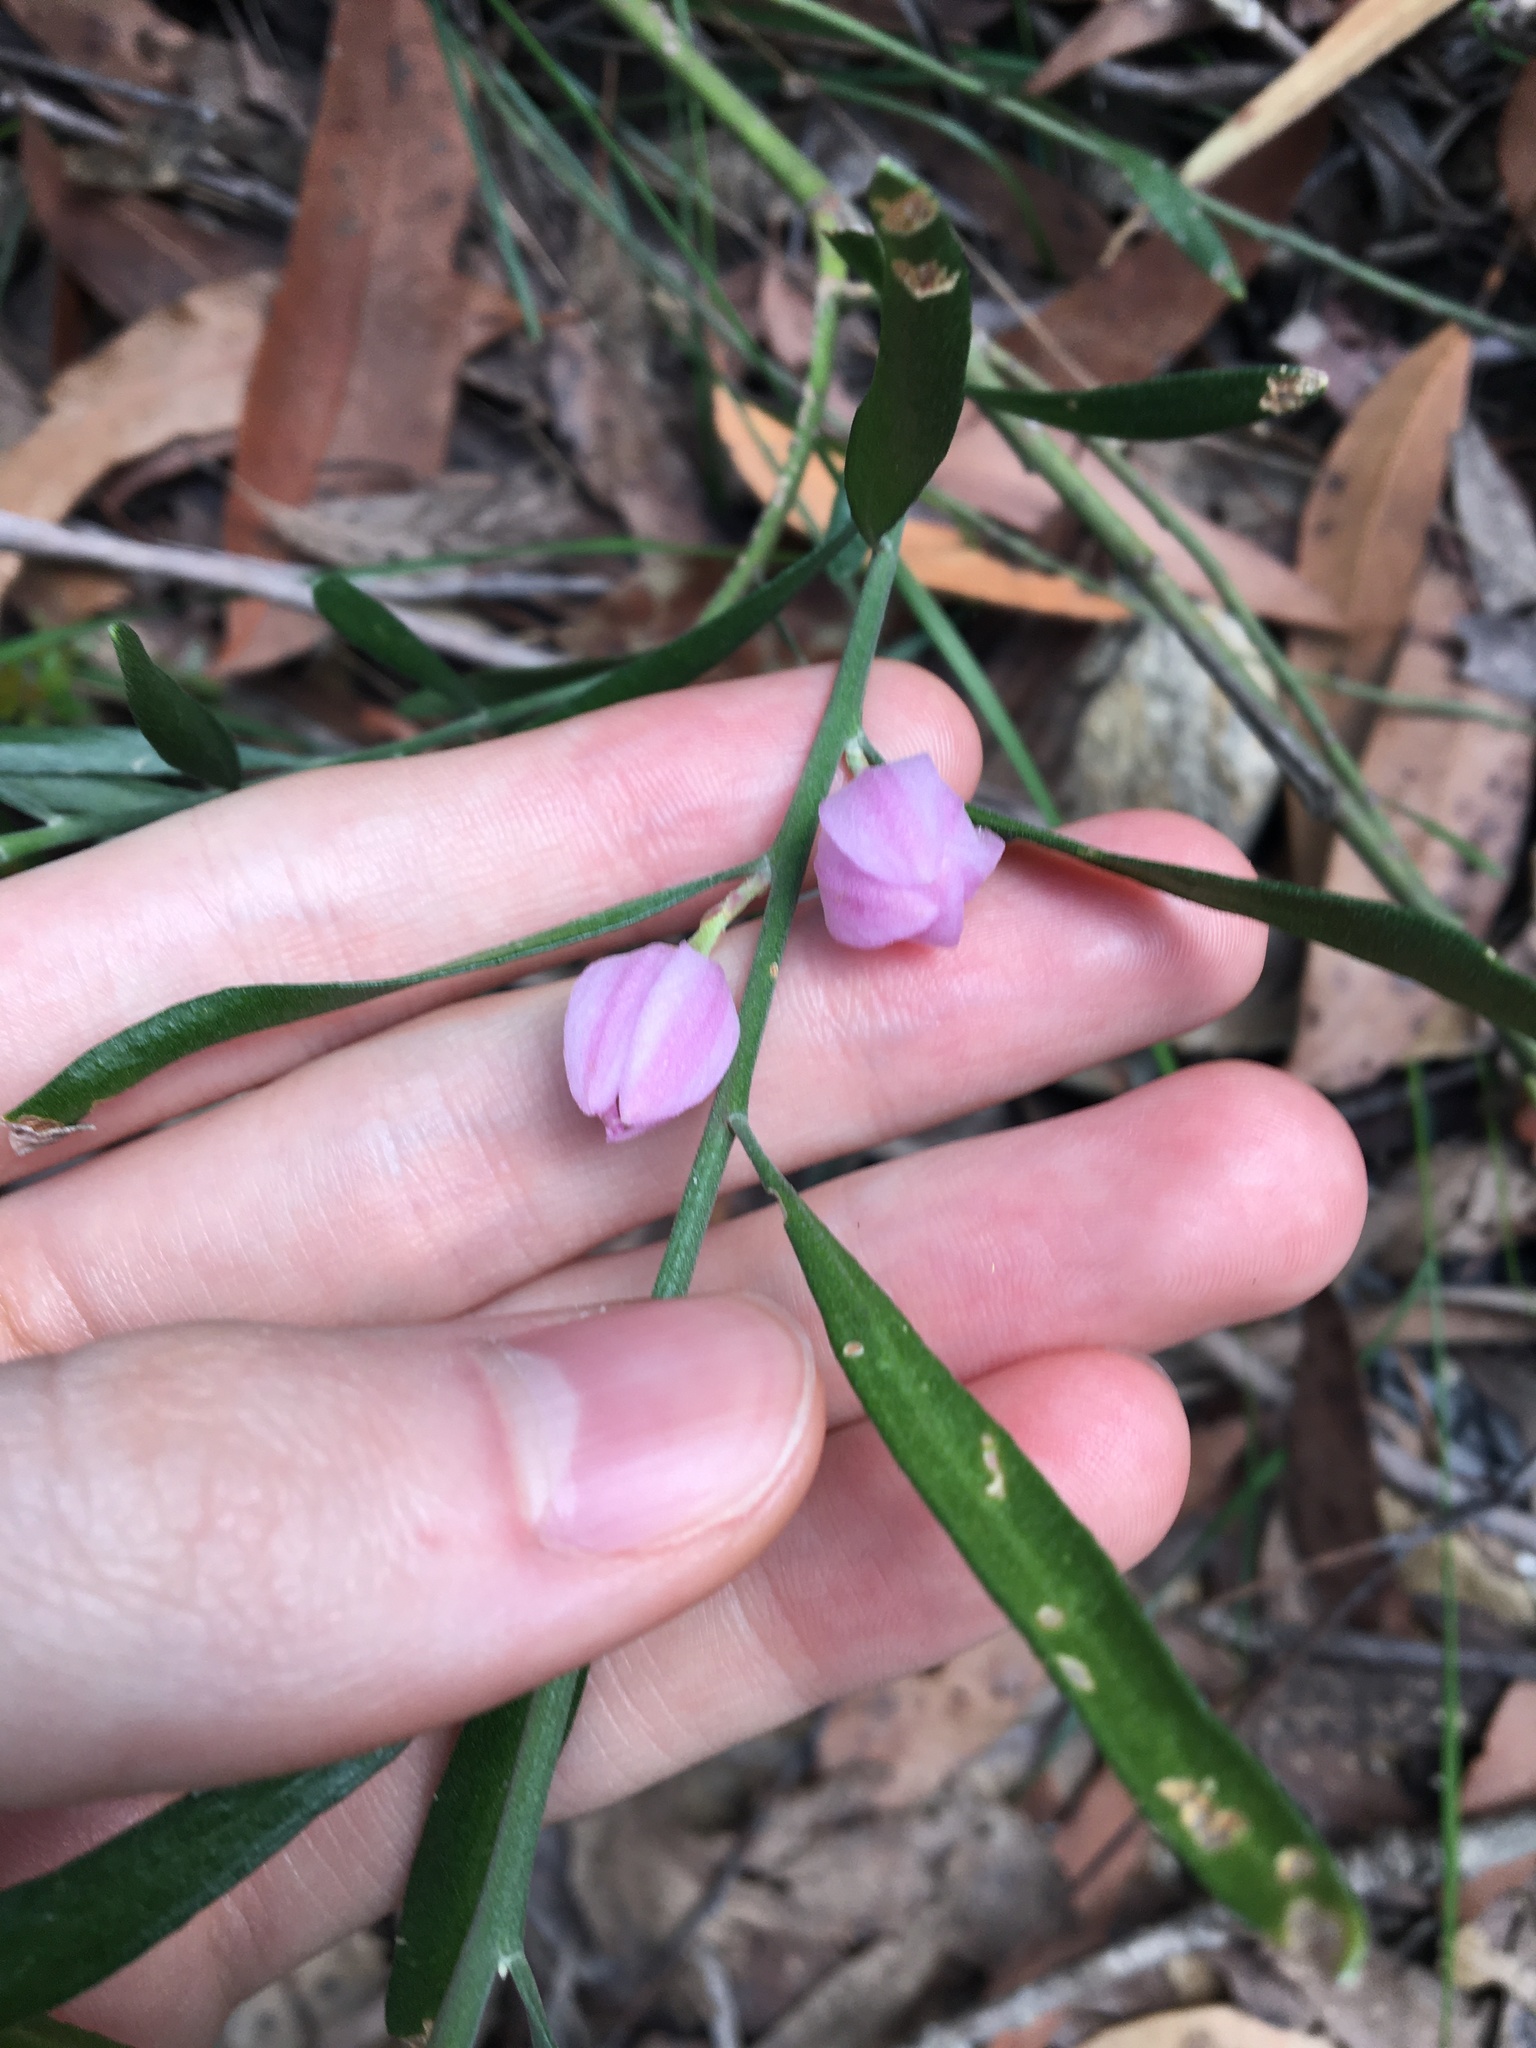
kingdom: Plantae
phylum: Tracheophyta
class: Magnoliopsida
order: Sapindales
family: Rutaceae
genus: Eriostemon
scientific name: Eriostemon australasius
